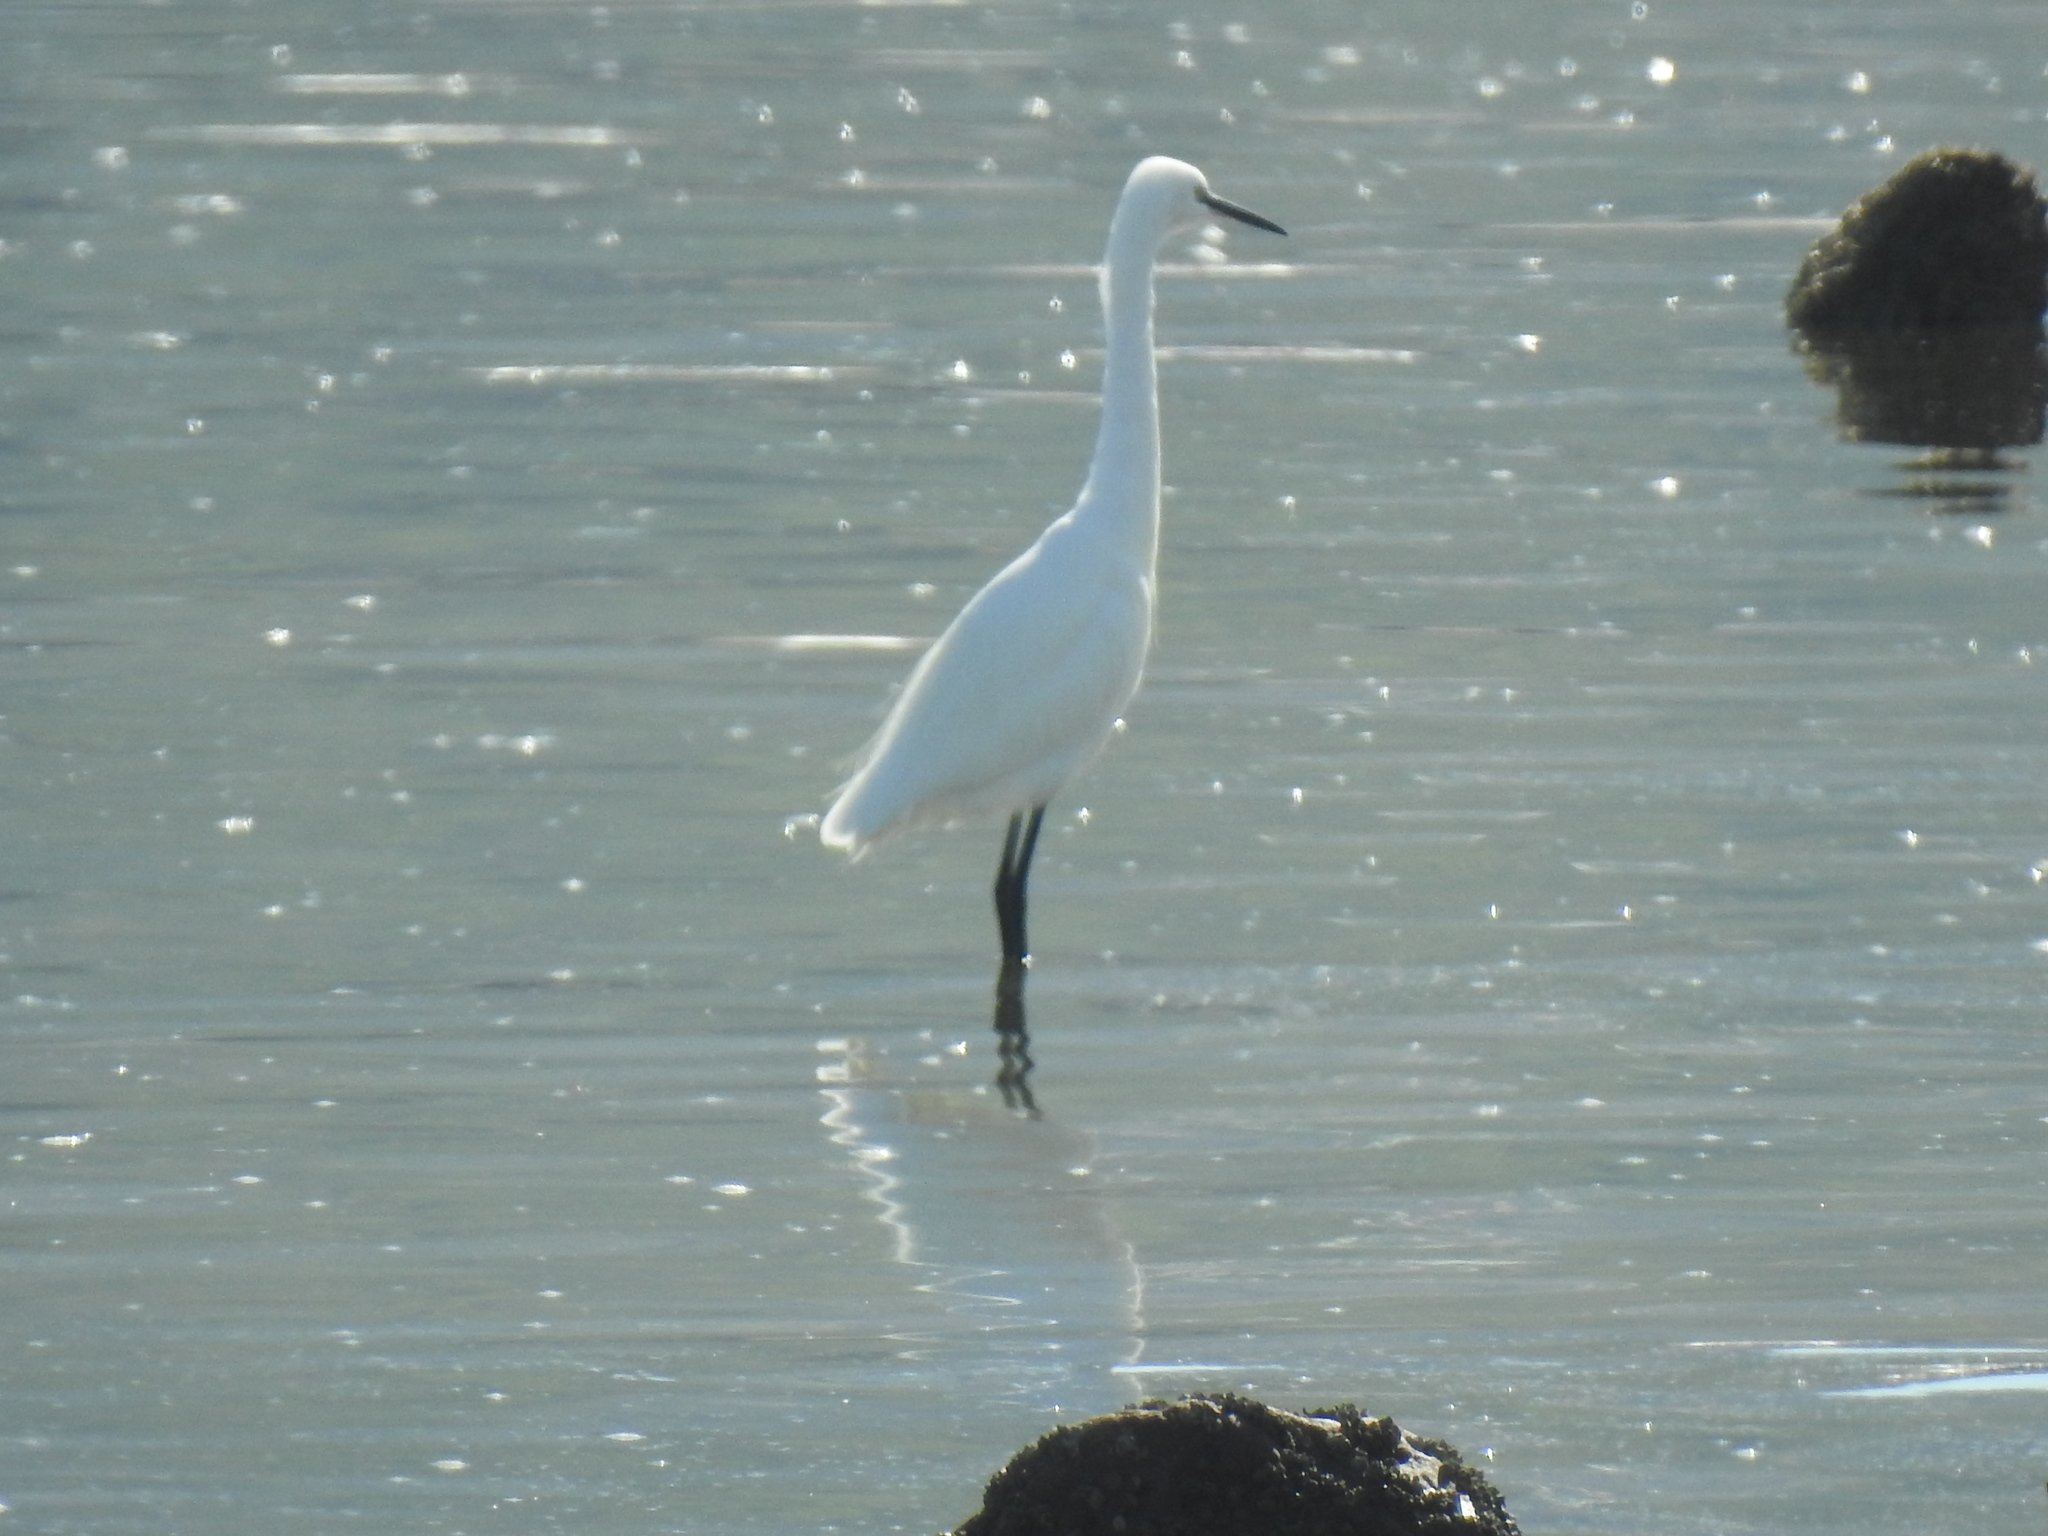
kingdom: Animalia
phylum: Chordata
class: Aves
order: Pelecaniformes
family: Ardeidae
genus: Egretta
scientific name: Egretta garzetta
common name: Little egret
